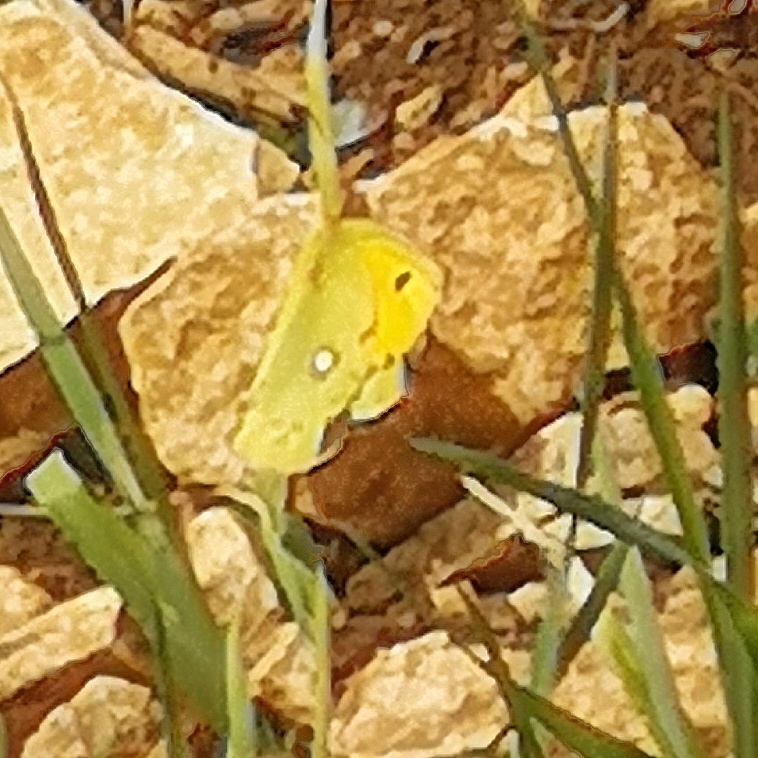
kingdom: Animalia
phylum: Arthropoda
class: Insecta
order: Lepidoptera
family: Pieridae
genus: Colias
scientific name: Colias croceus
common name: Clouded yellow
